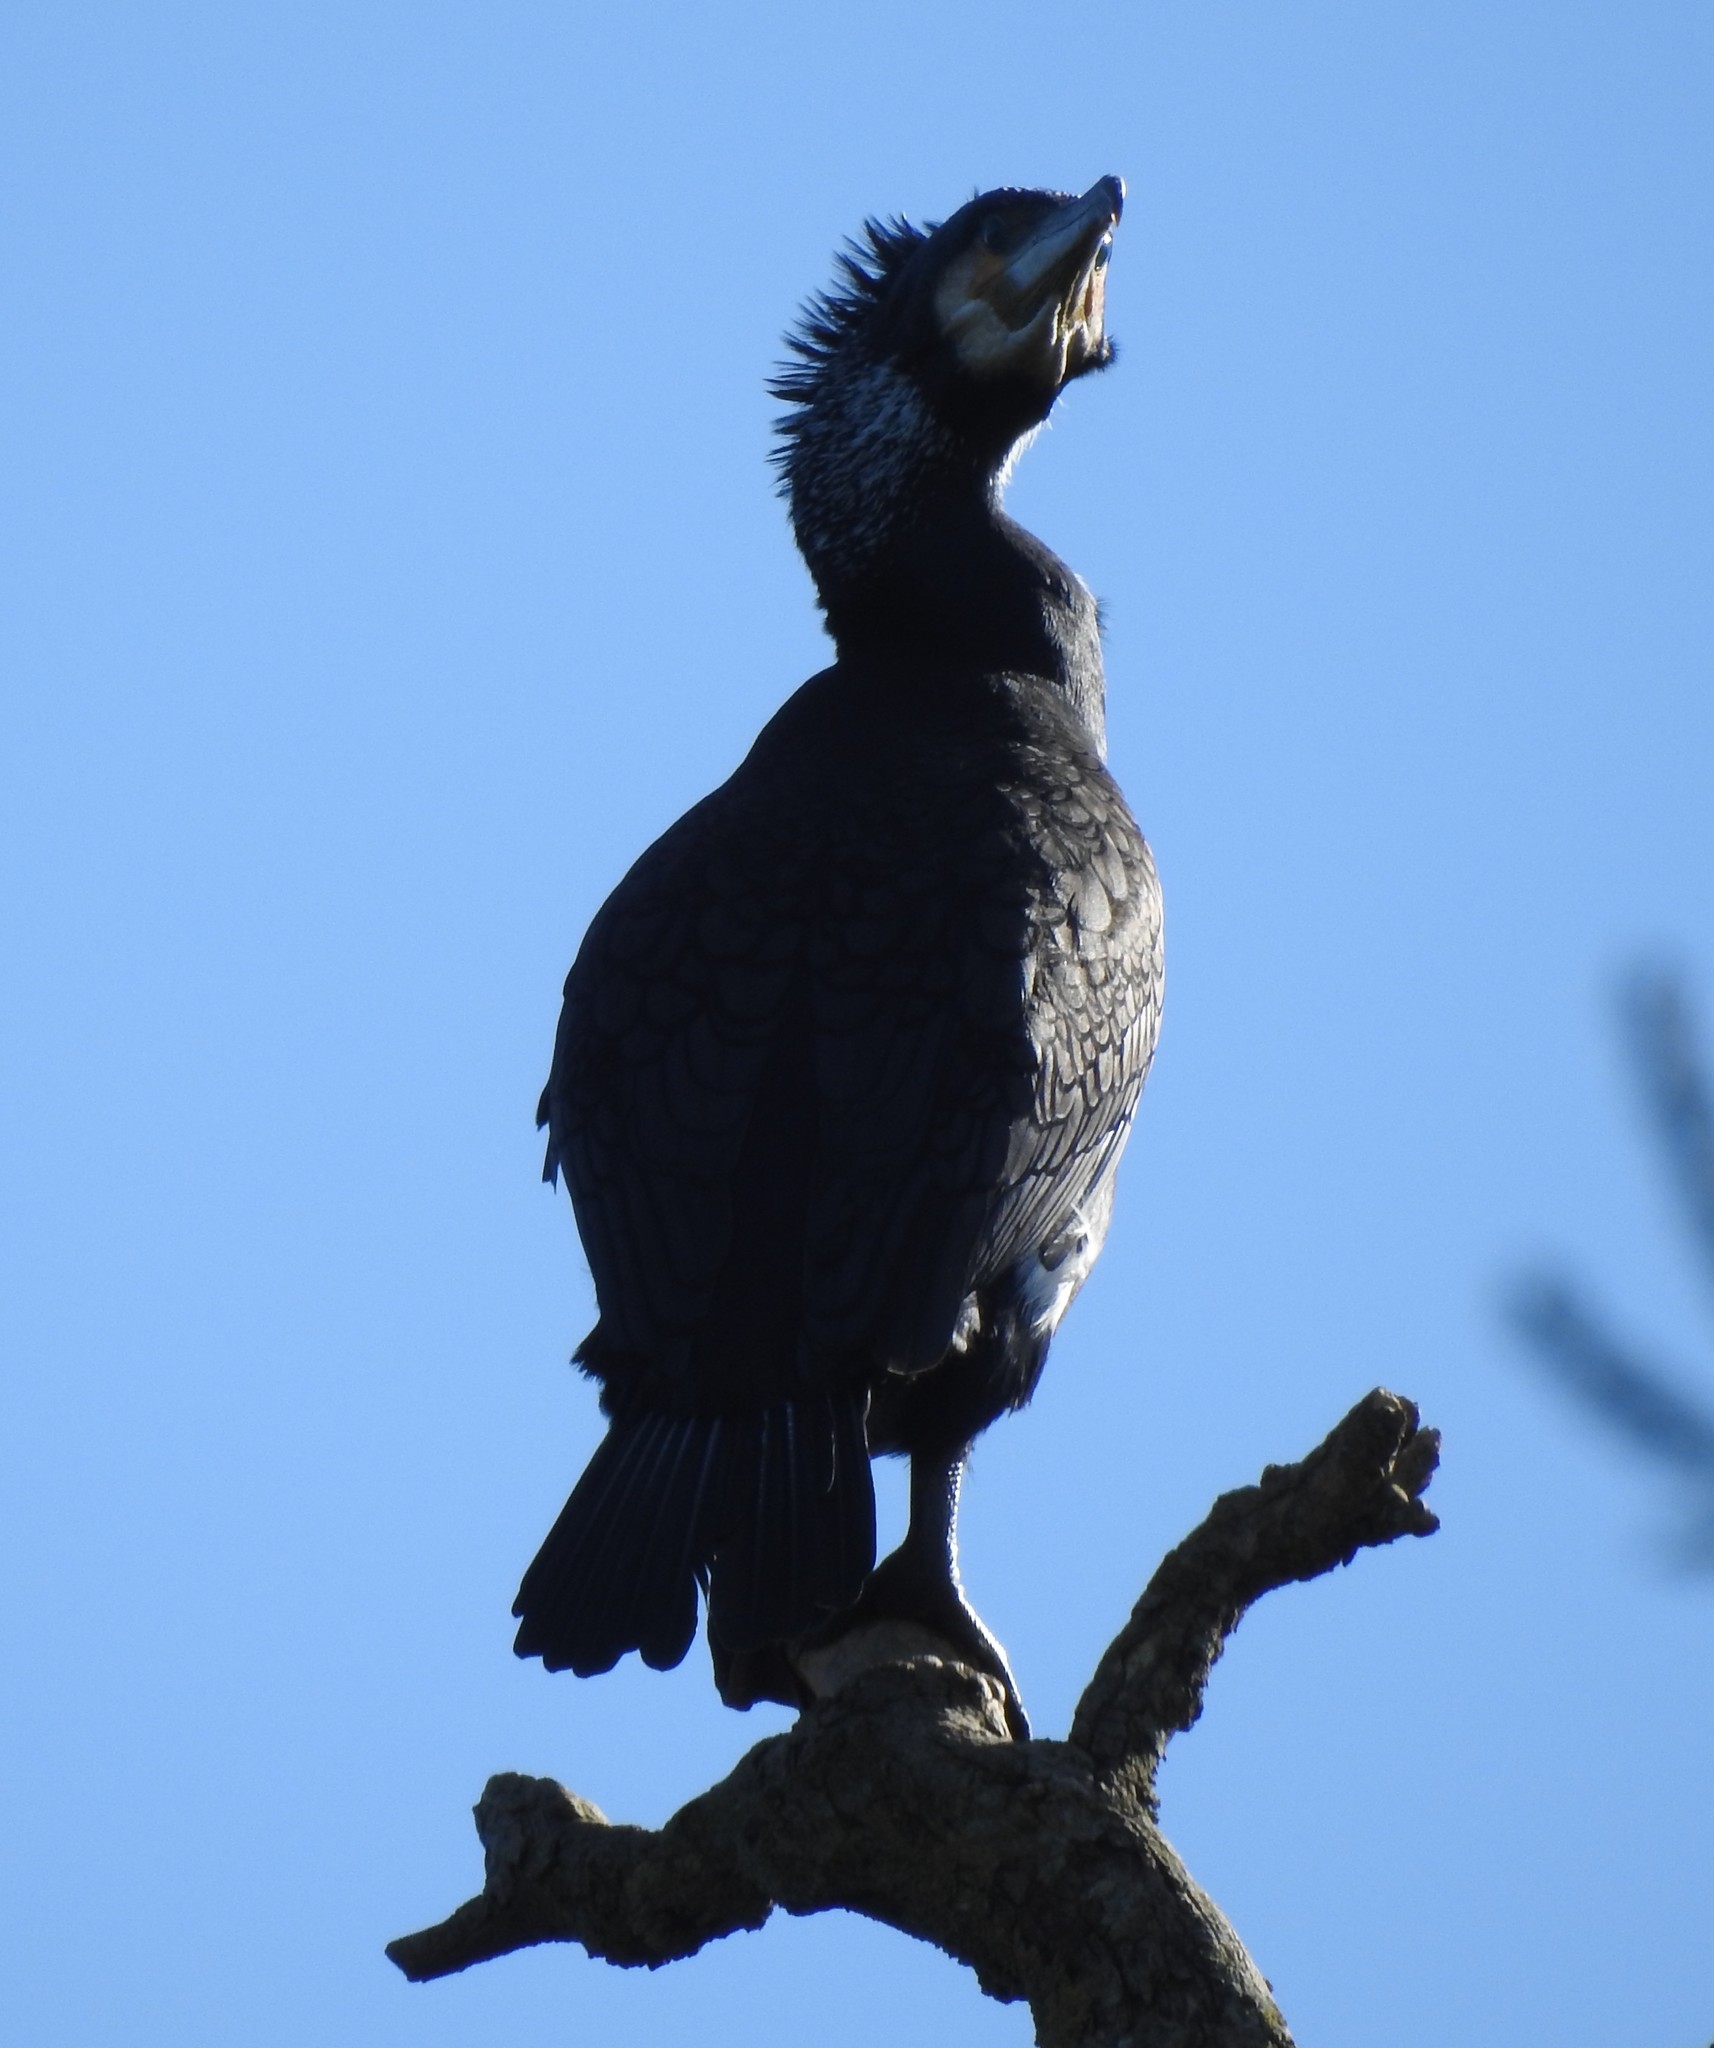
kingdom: Animalia
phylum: Chordata
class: Aves
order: Suliformes
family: Phalacrocoracidae
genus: Phalacrocorax
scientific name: Phalacrocorax carbo
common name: Great cormorant
